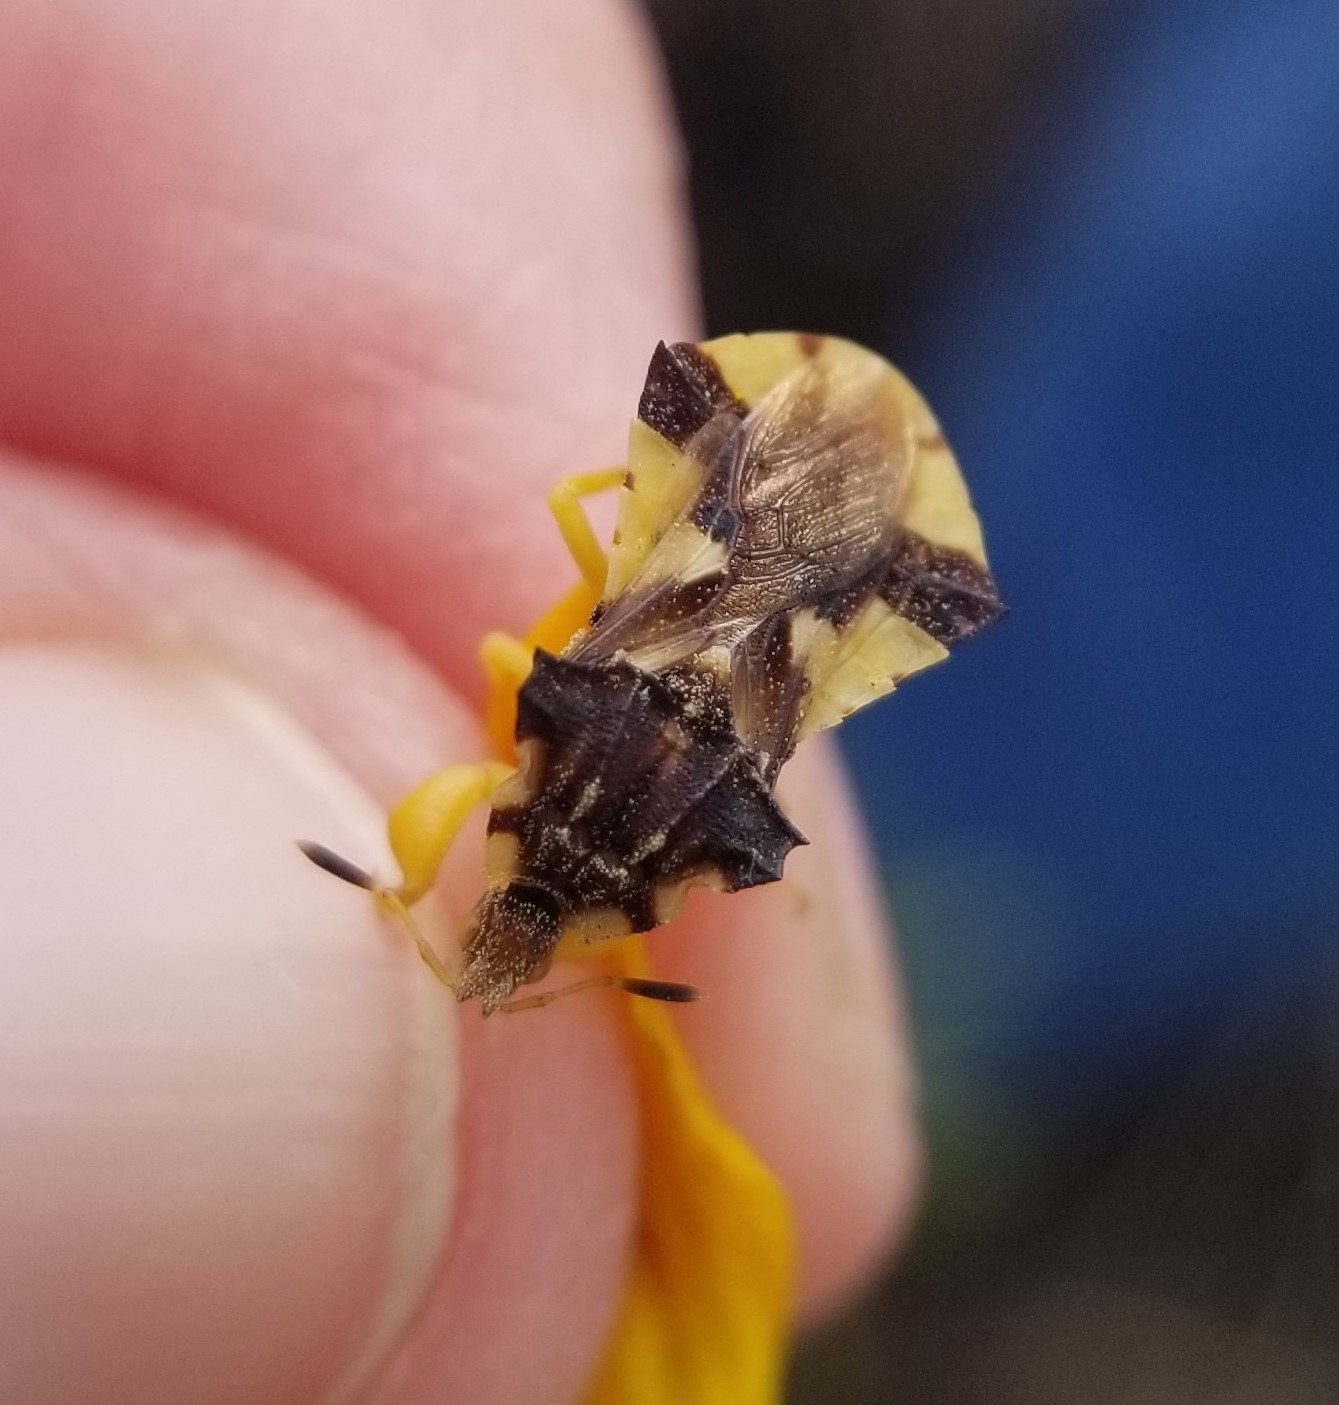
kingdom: Animalia
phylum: Arthropoda
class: Insecta
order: Hemiptera
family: Reduviidae
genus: Phymata
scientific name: Phymata americana
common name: Jagged ambush bug
